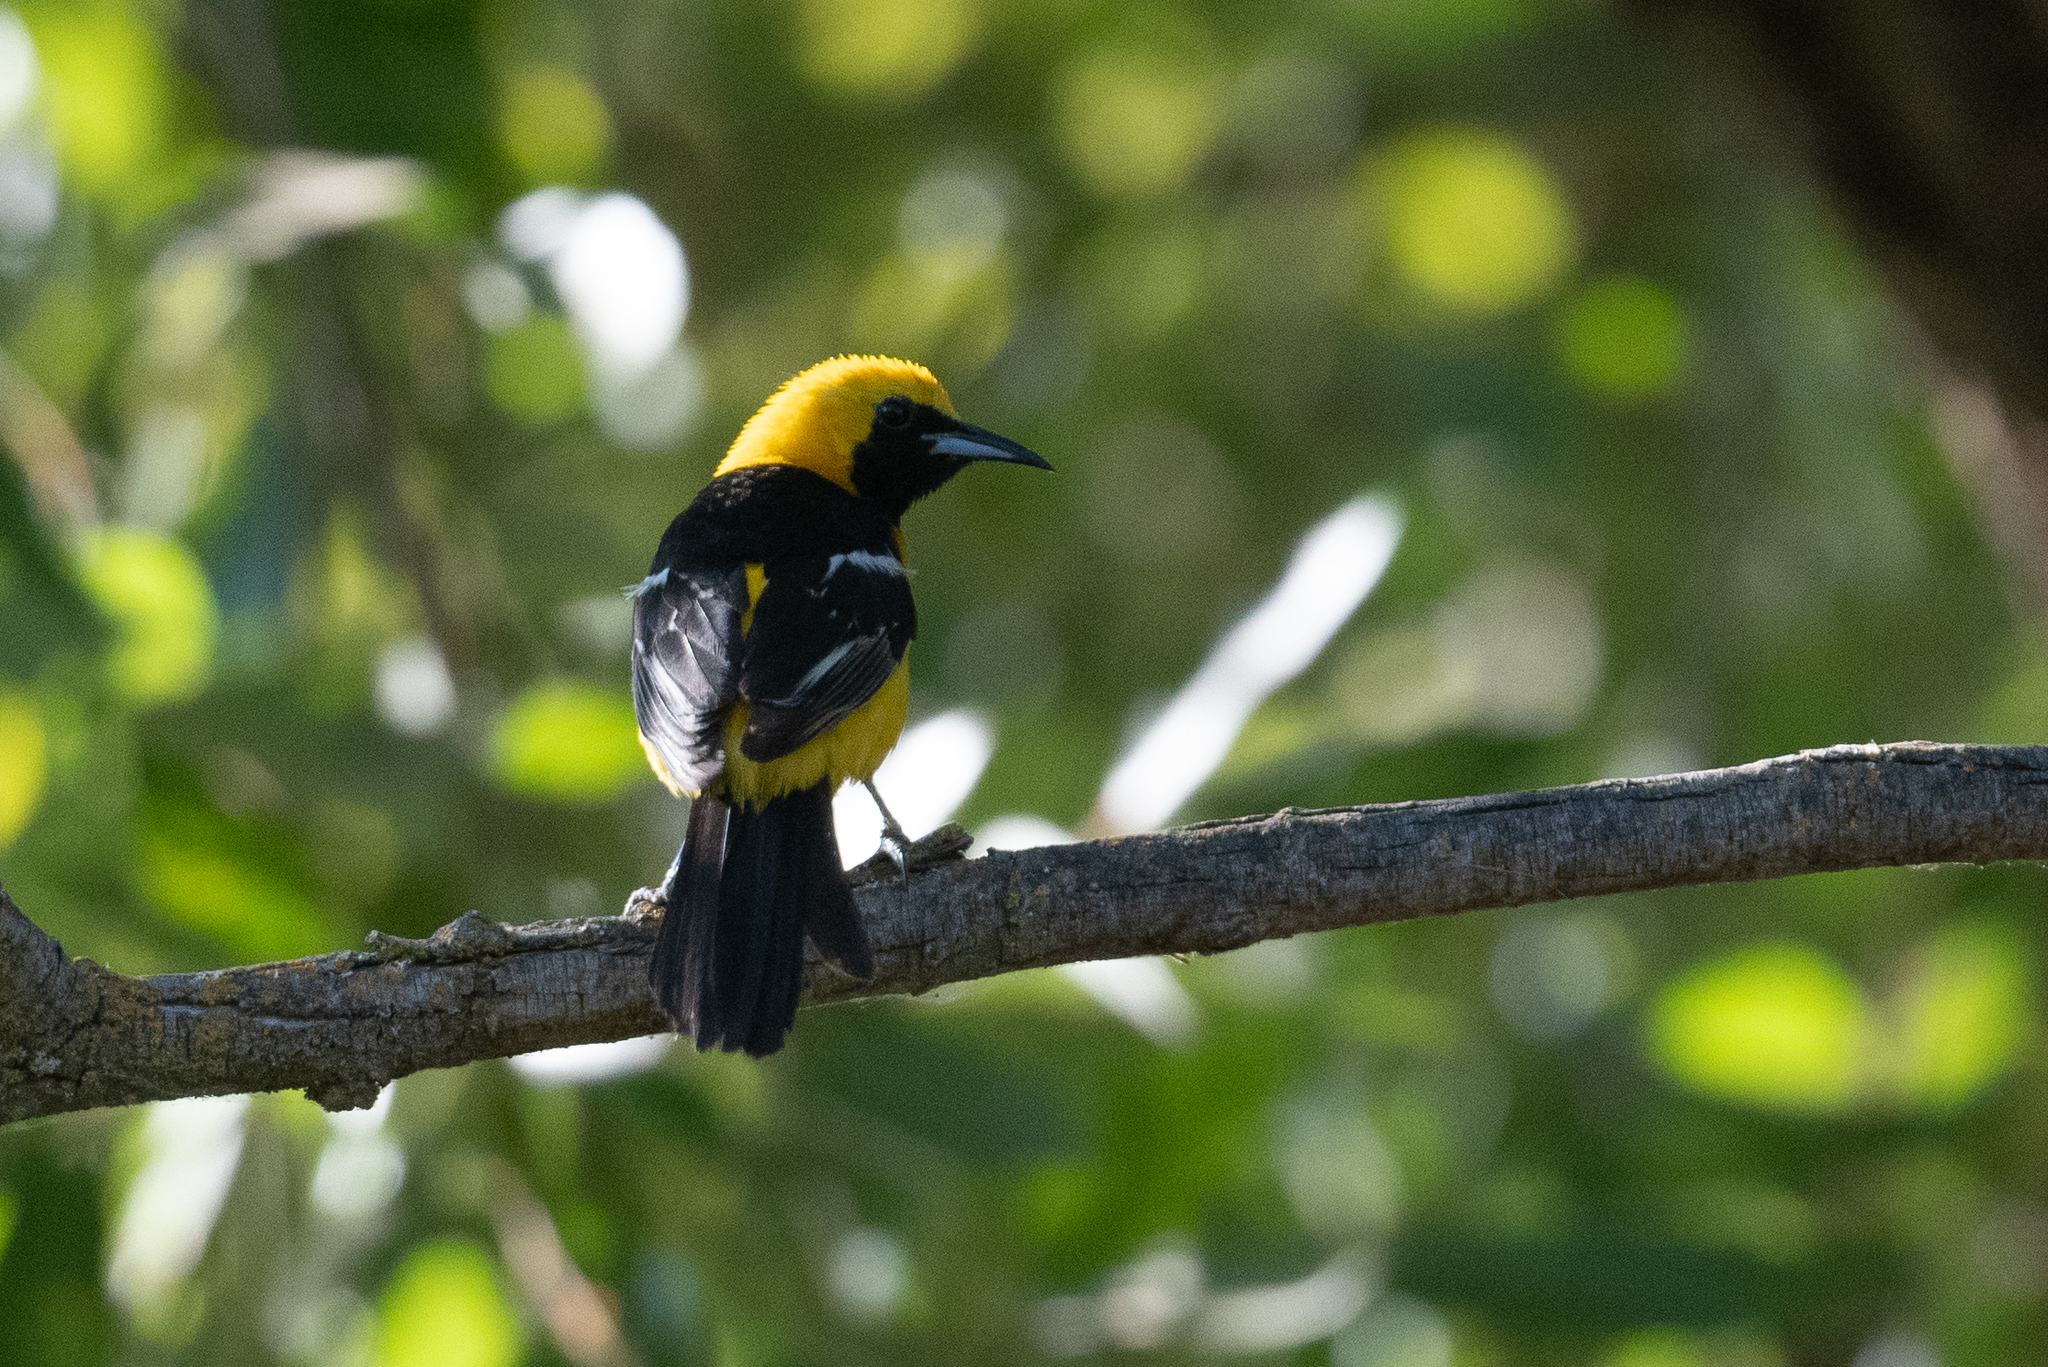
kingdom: Animalia
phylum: Chordata
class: Aves
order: Passeriformes
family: Icteridae
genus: Icterus
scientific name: Icterus cucullatus
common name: Hooded oriole
